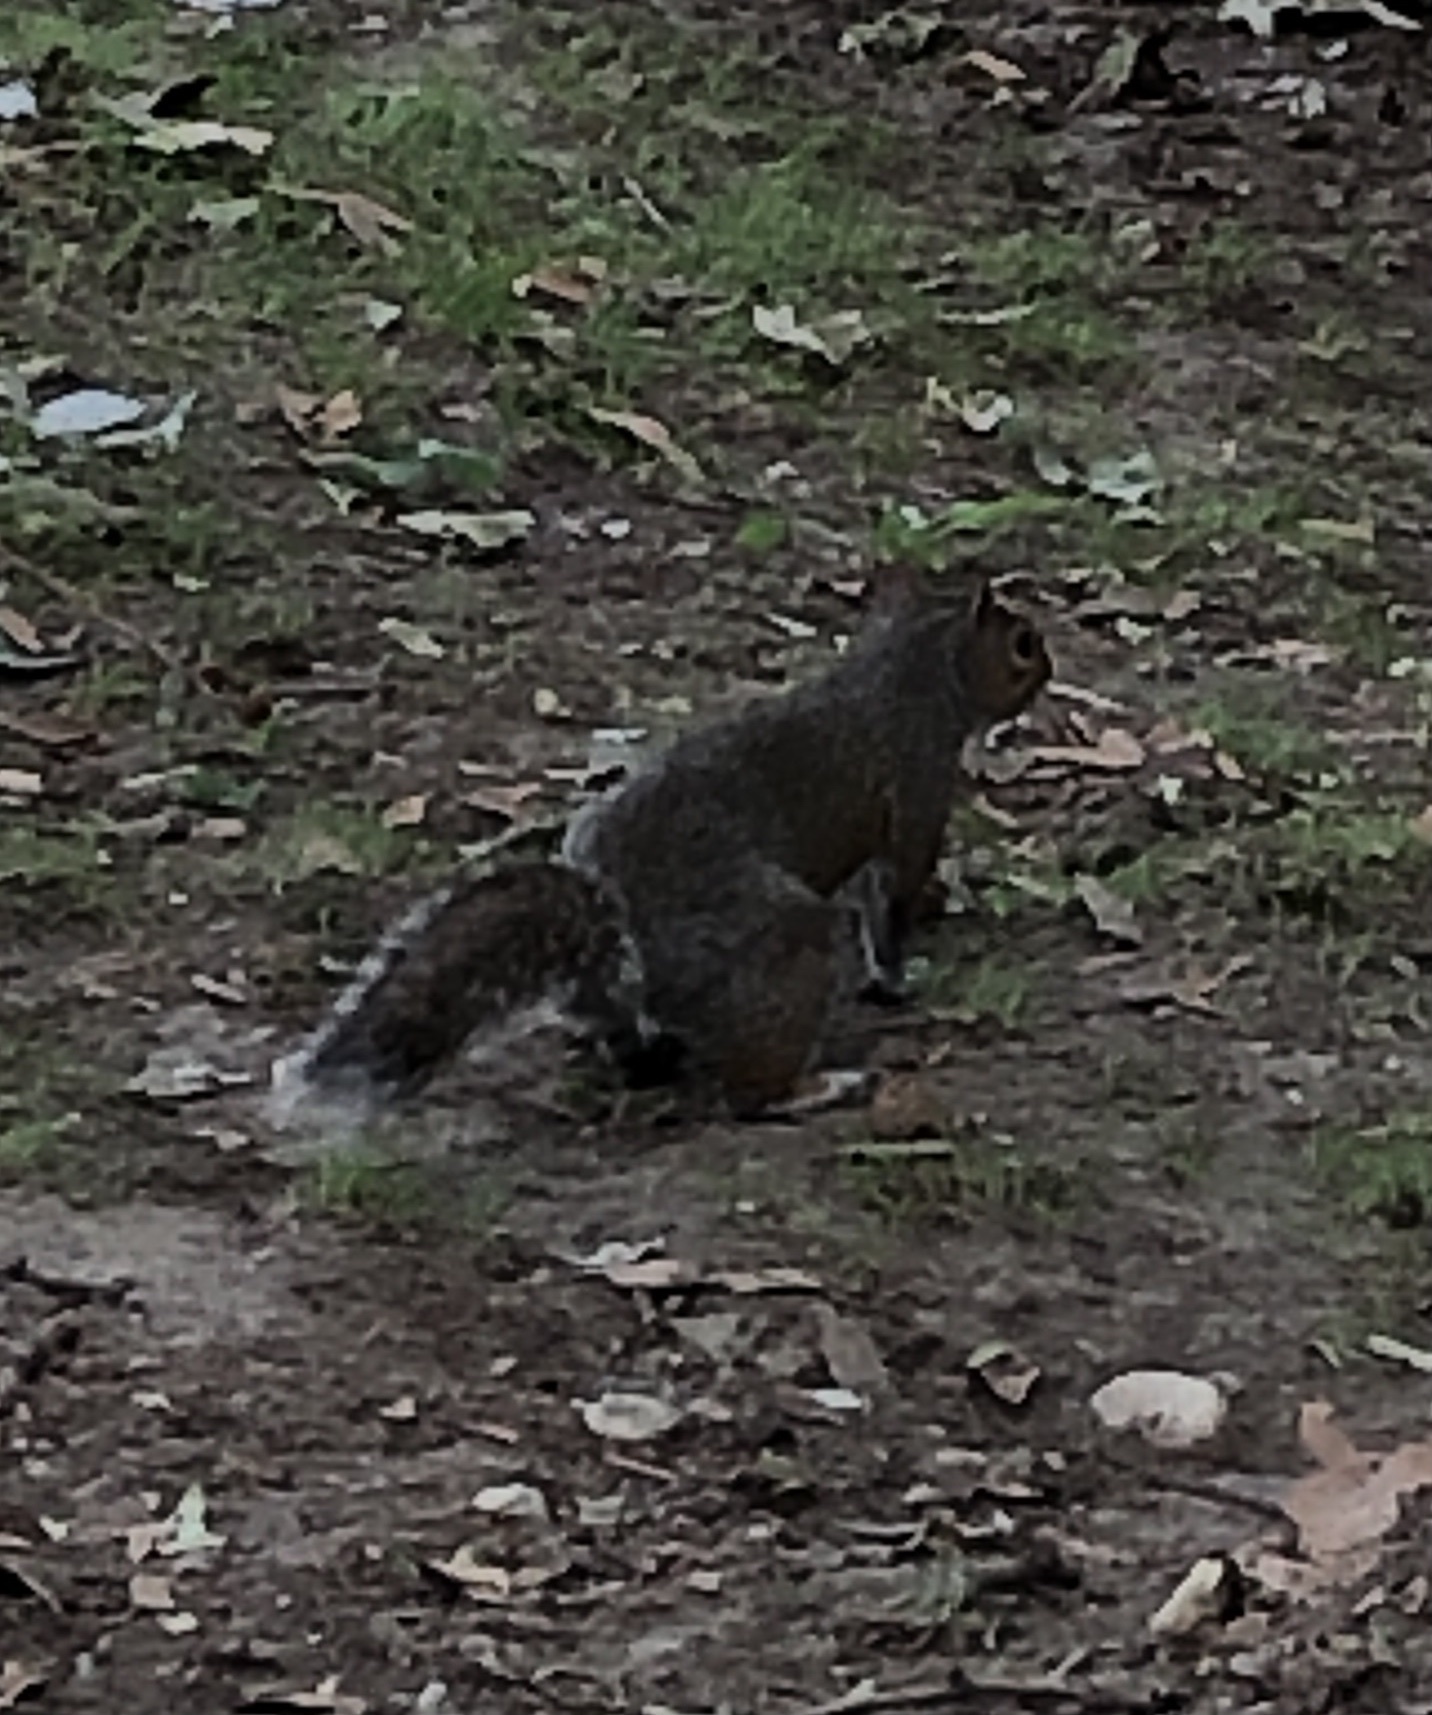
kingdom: Animalia
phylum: Chordata
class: Mammalia
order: Rodentia
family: Sciuridae
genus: Sciurus
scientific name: Sciurus carolinensis
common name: Eastern gray squirrel
